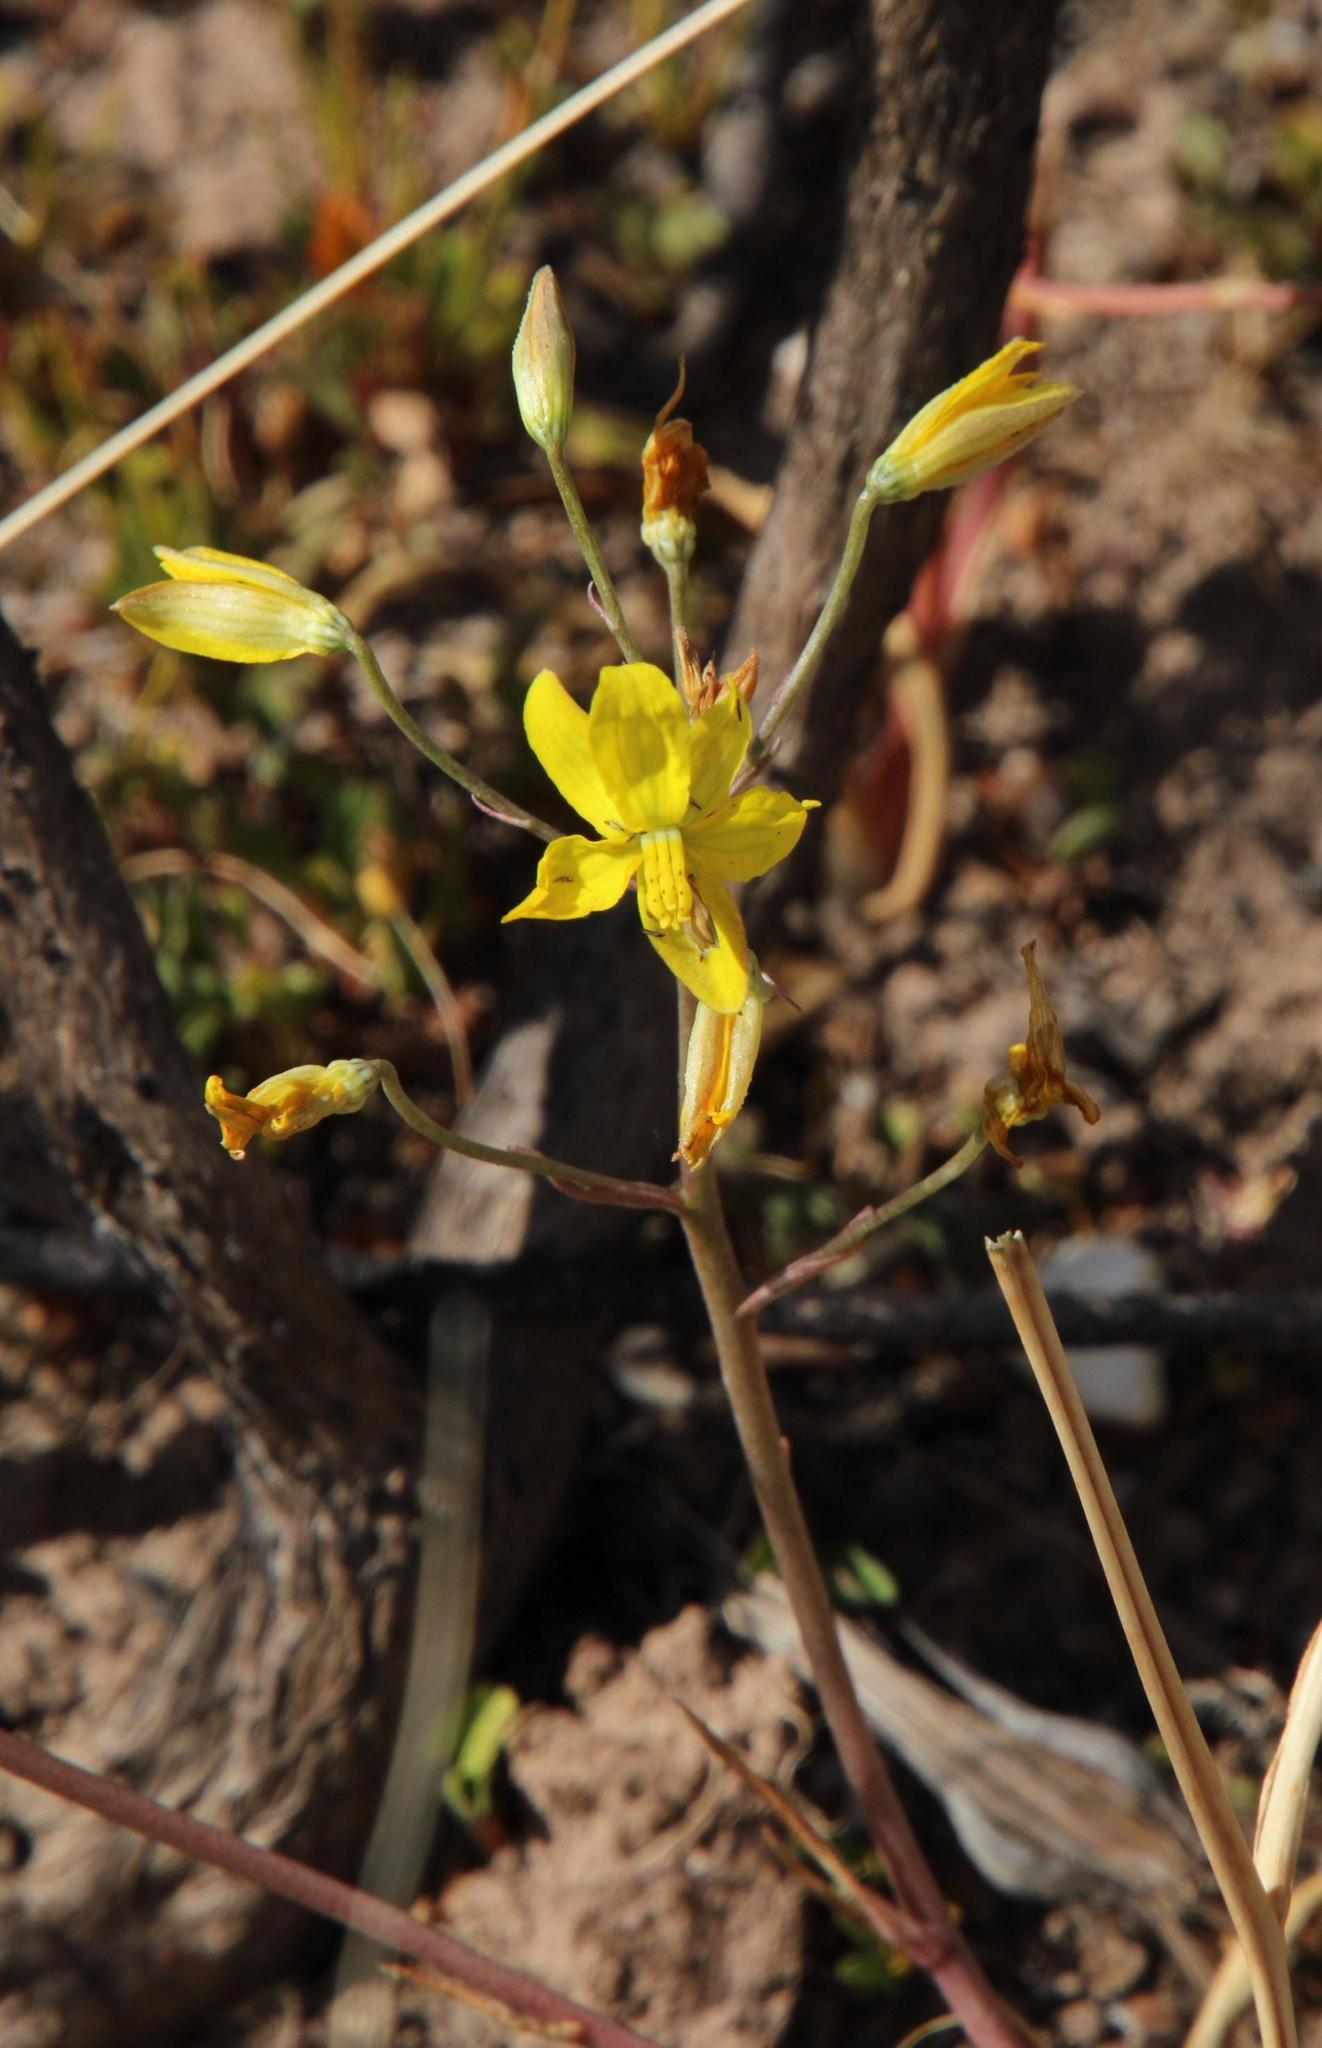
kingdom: Plantae
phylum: Tracheophyta
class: Liliopsida
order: Asparagales
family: Tecophilaeaceae
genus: Cyanella
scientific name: Cyanella lutea
